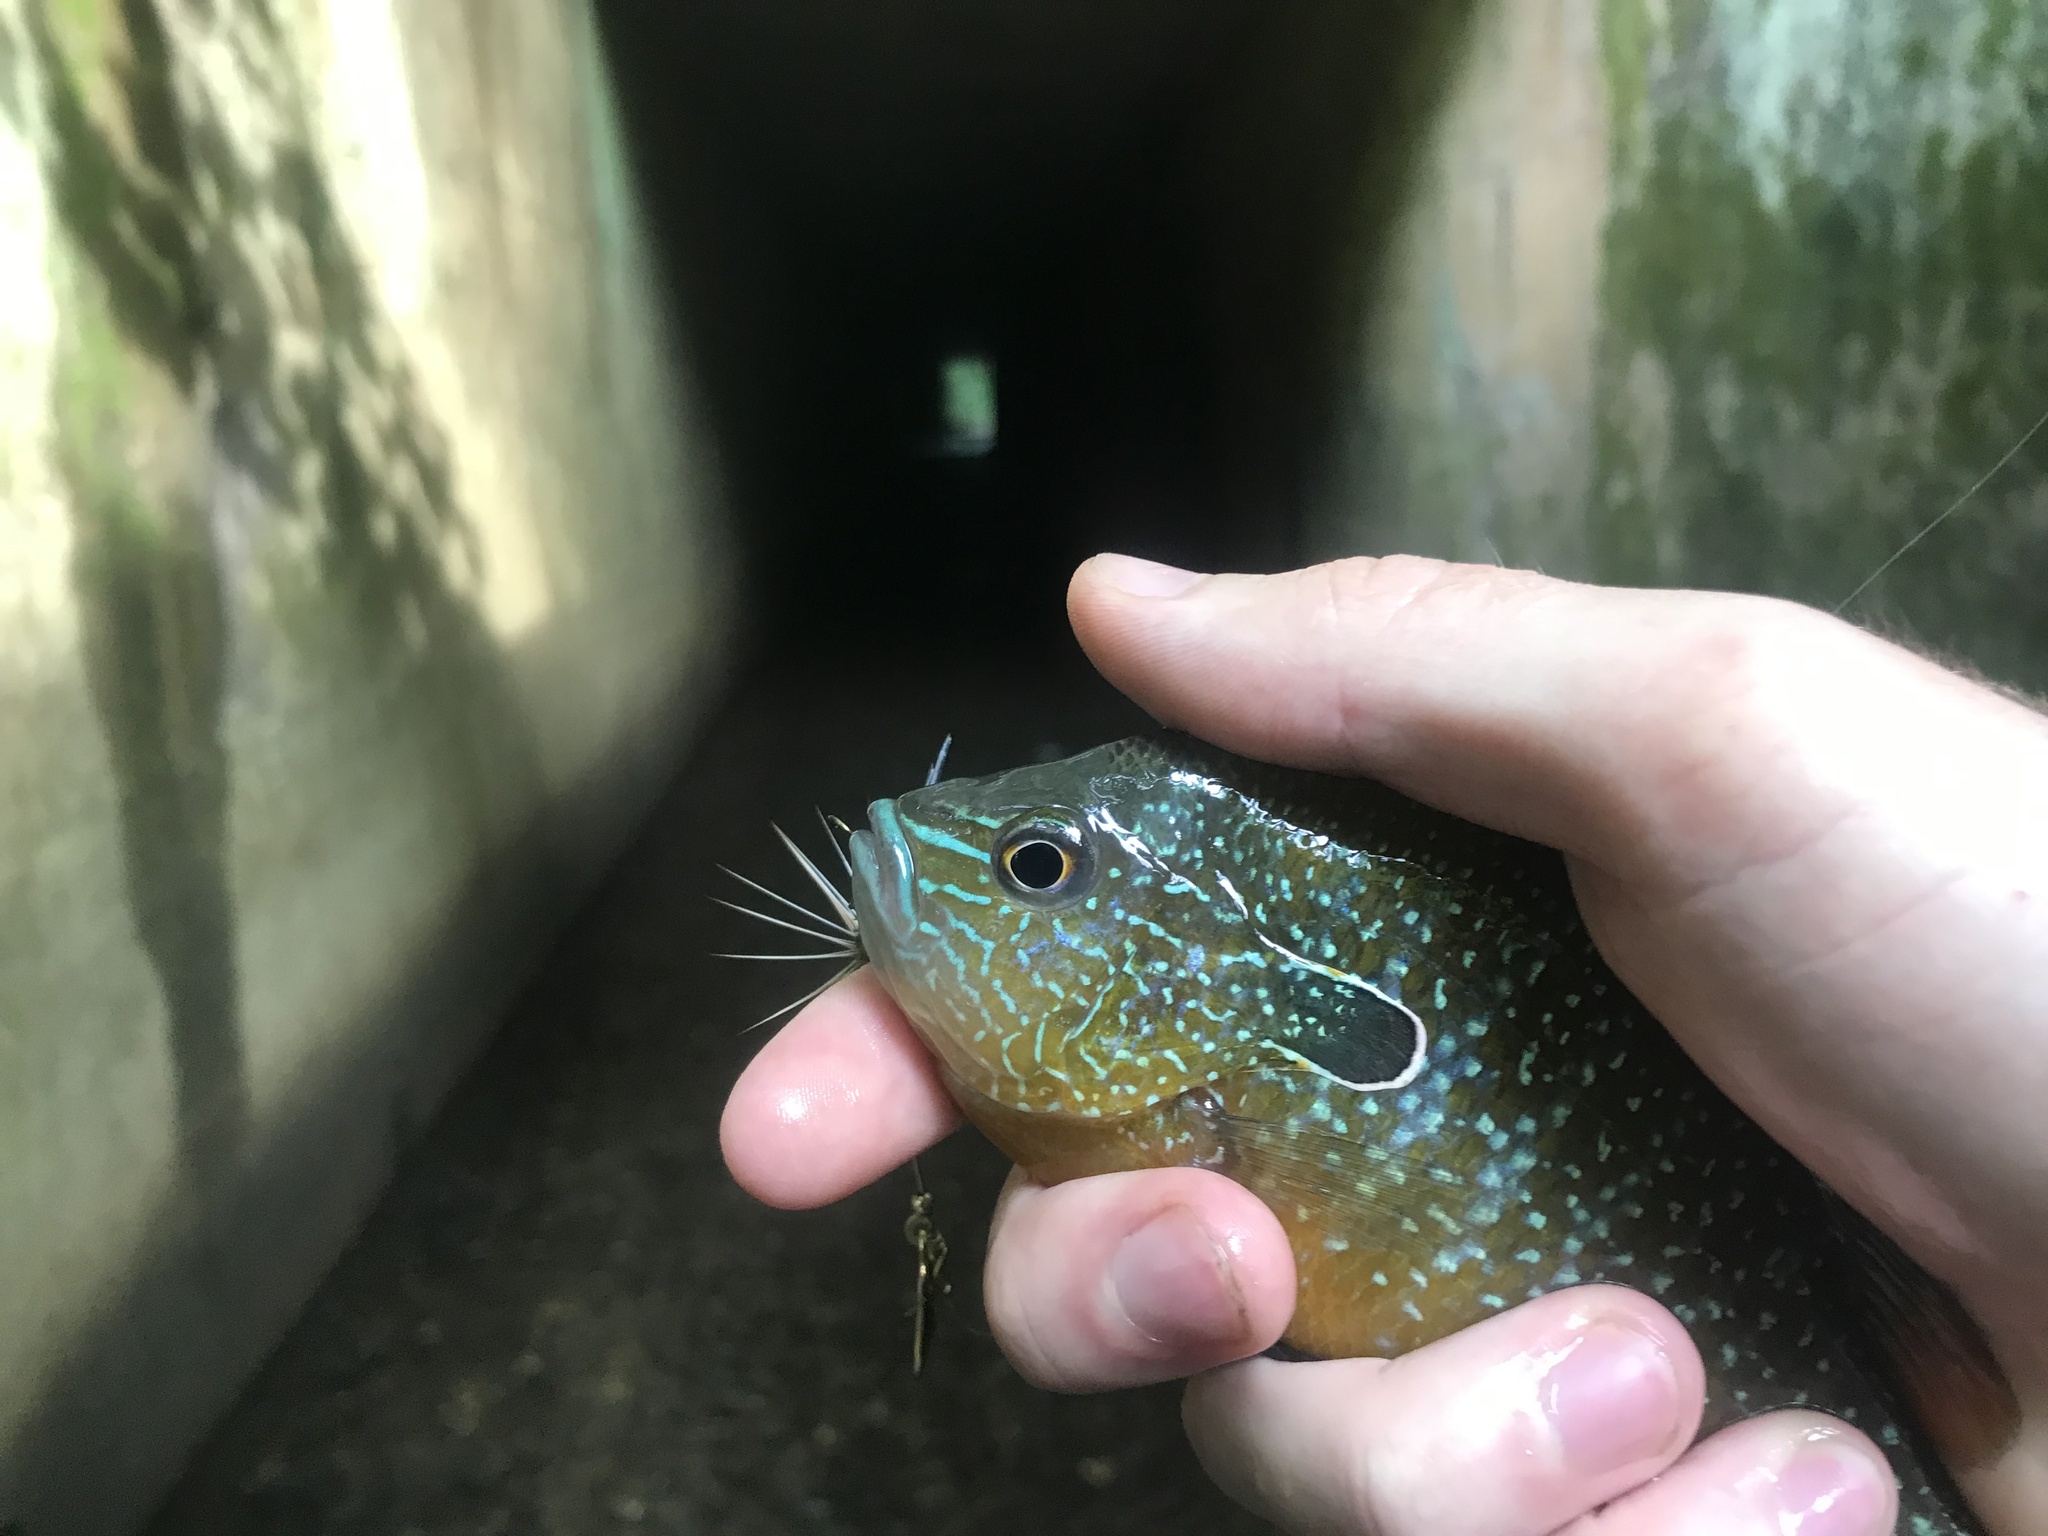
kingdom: Animalia
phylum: Chordata
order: Perciformes
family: Centrarchidae
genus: Lepomis
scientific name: Lepomis megalotis
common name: Longear sunfish
